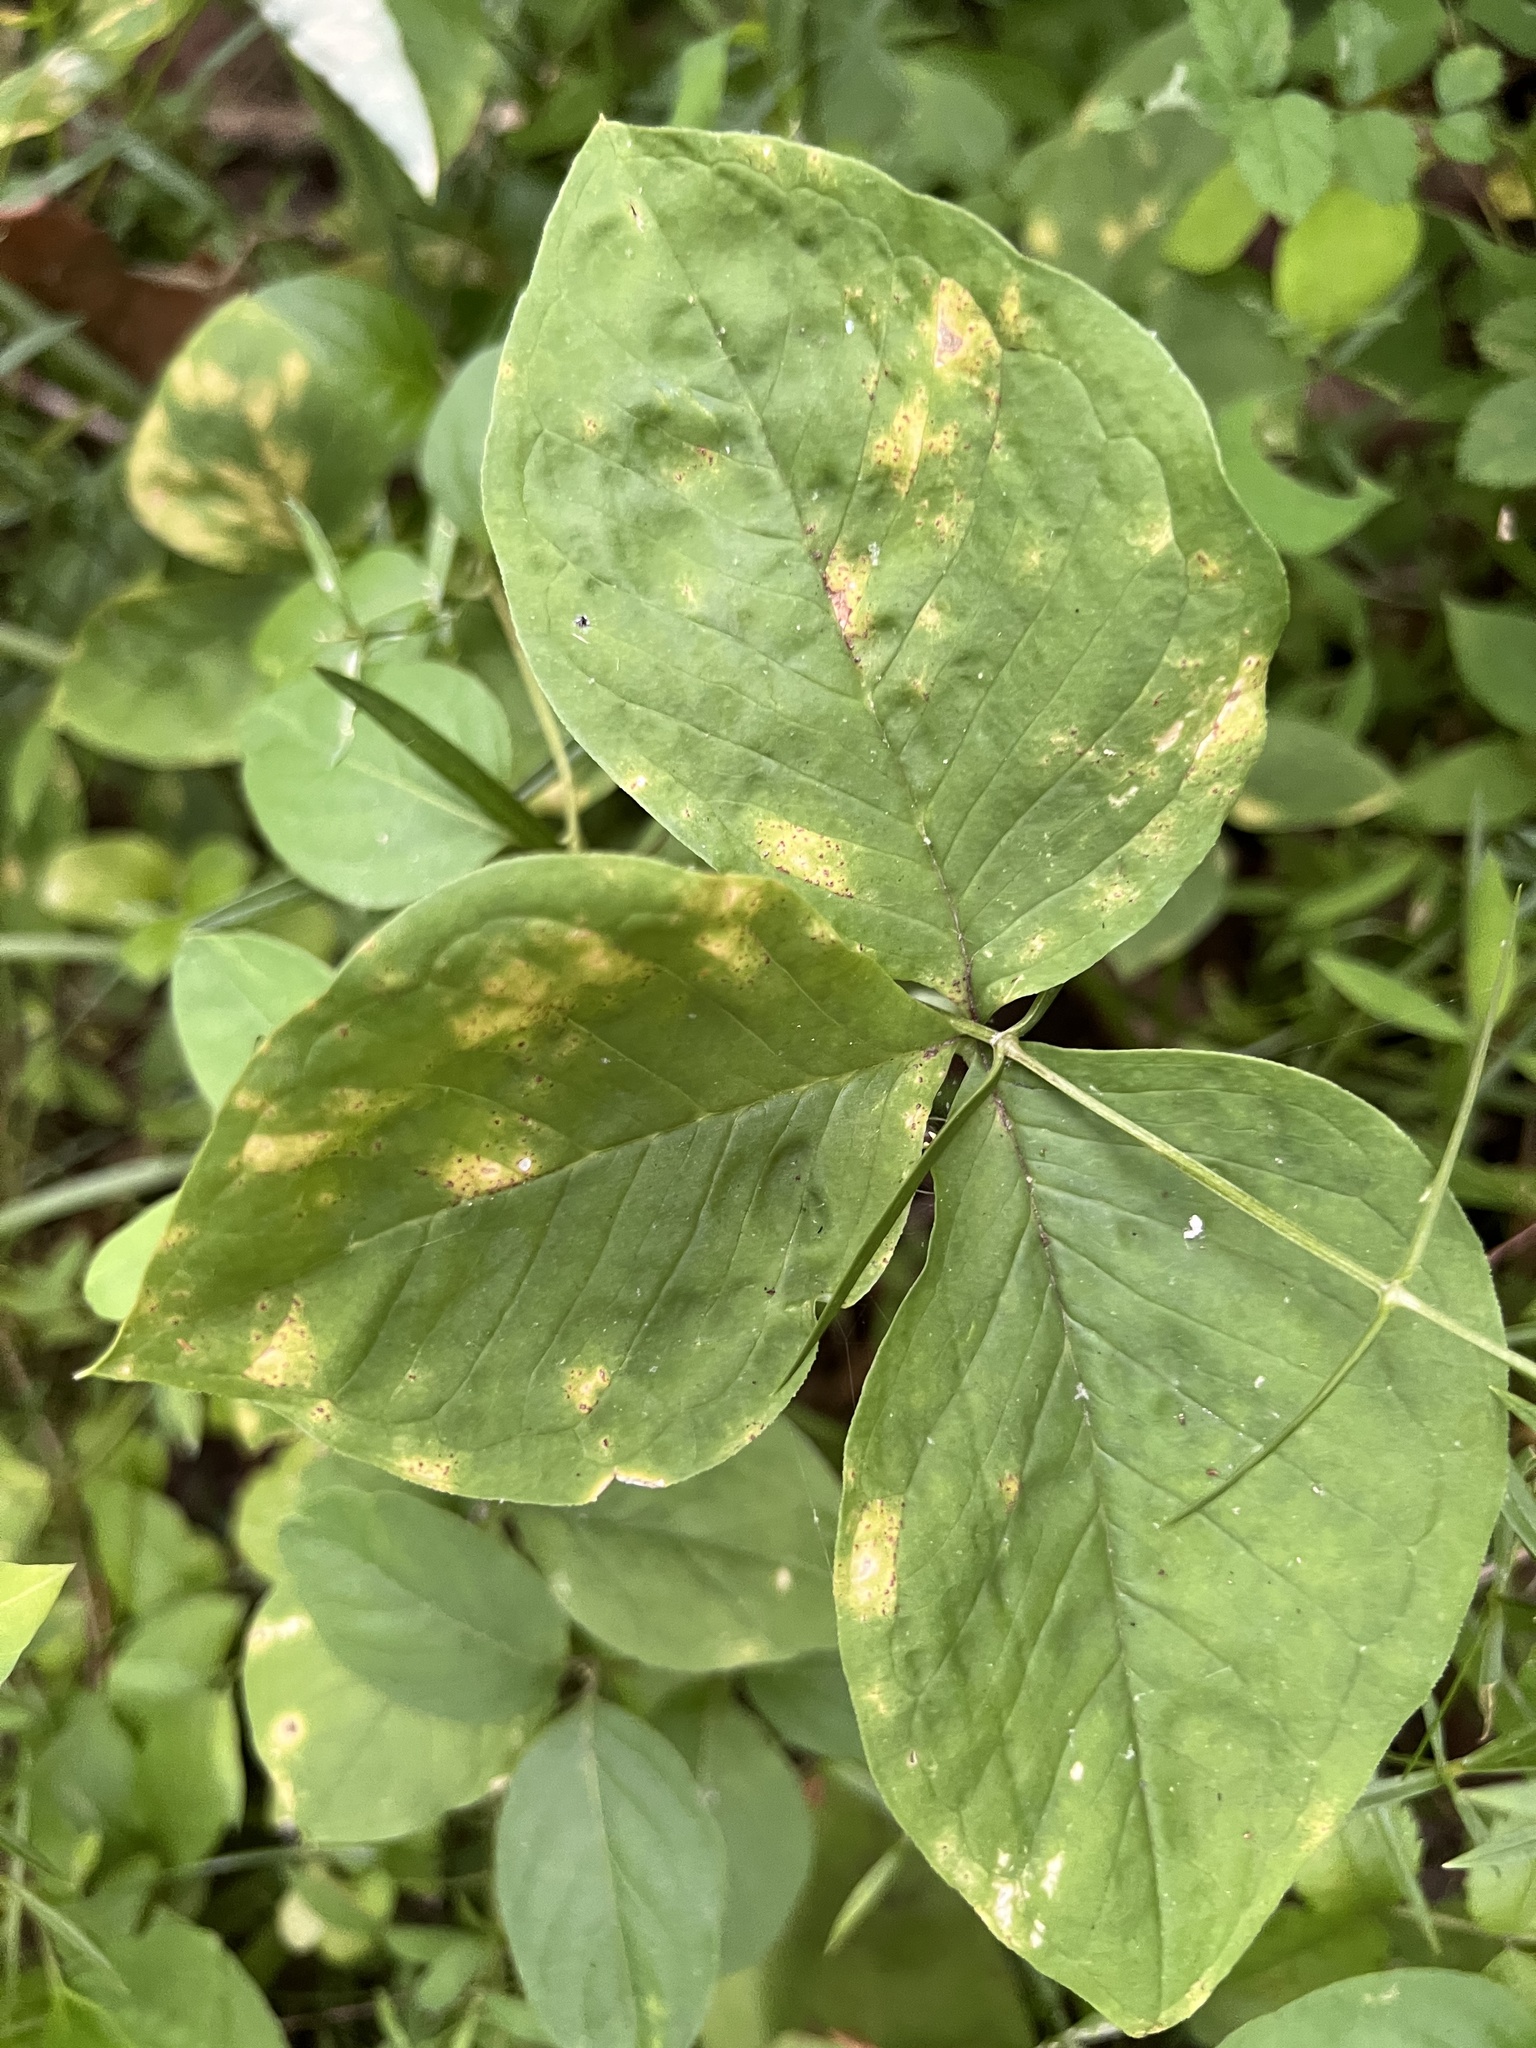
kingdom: Fungi
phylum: Basidiomycota
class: Pucciniomycetes
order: Pucciniales
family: Pucciniaceae
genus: Uromyces
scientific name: Uromyces ari-triphylli
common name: Jack-in-the-pulpit rust
